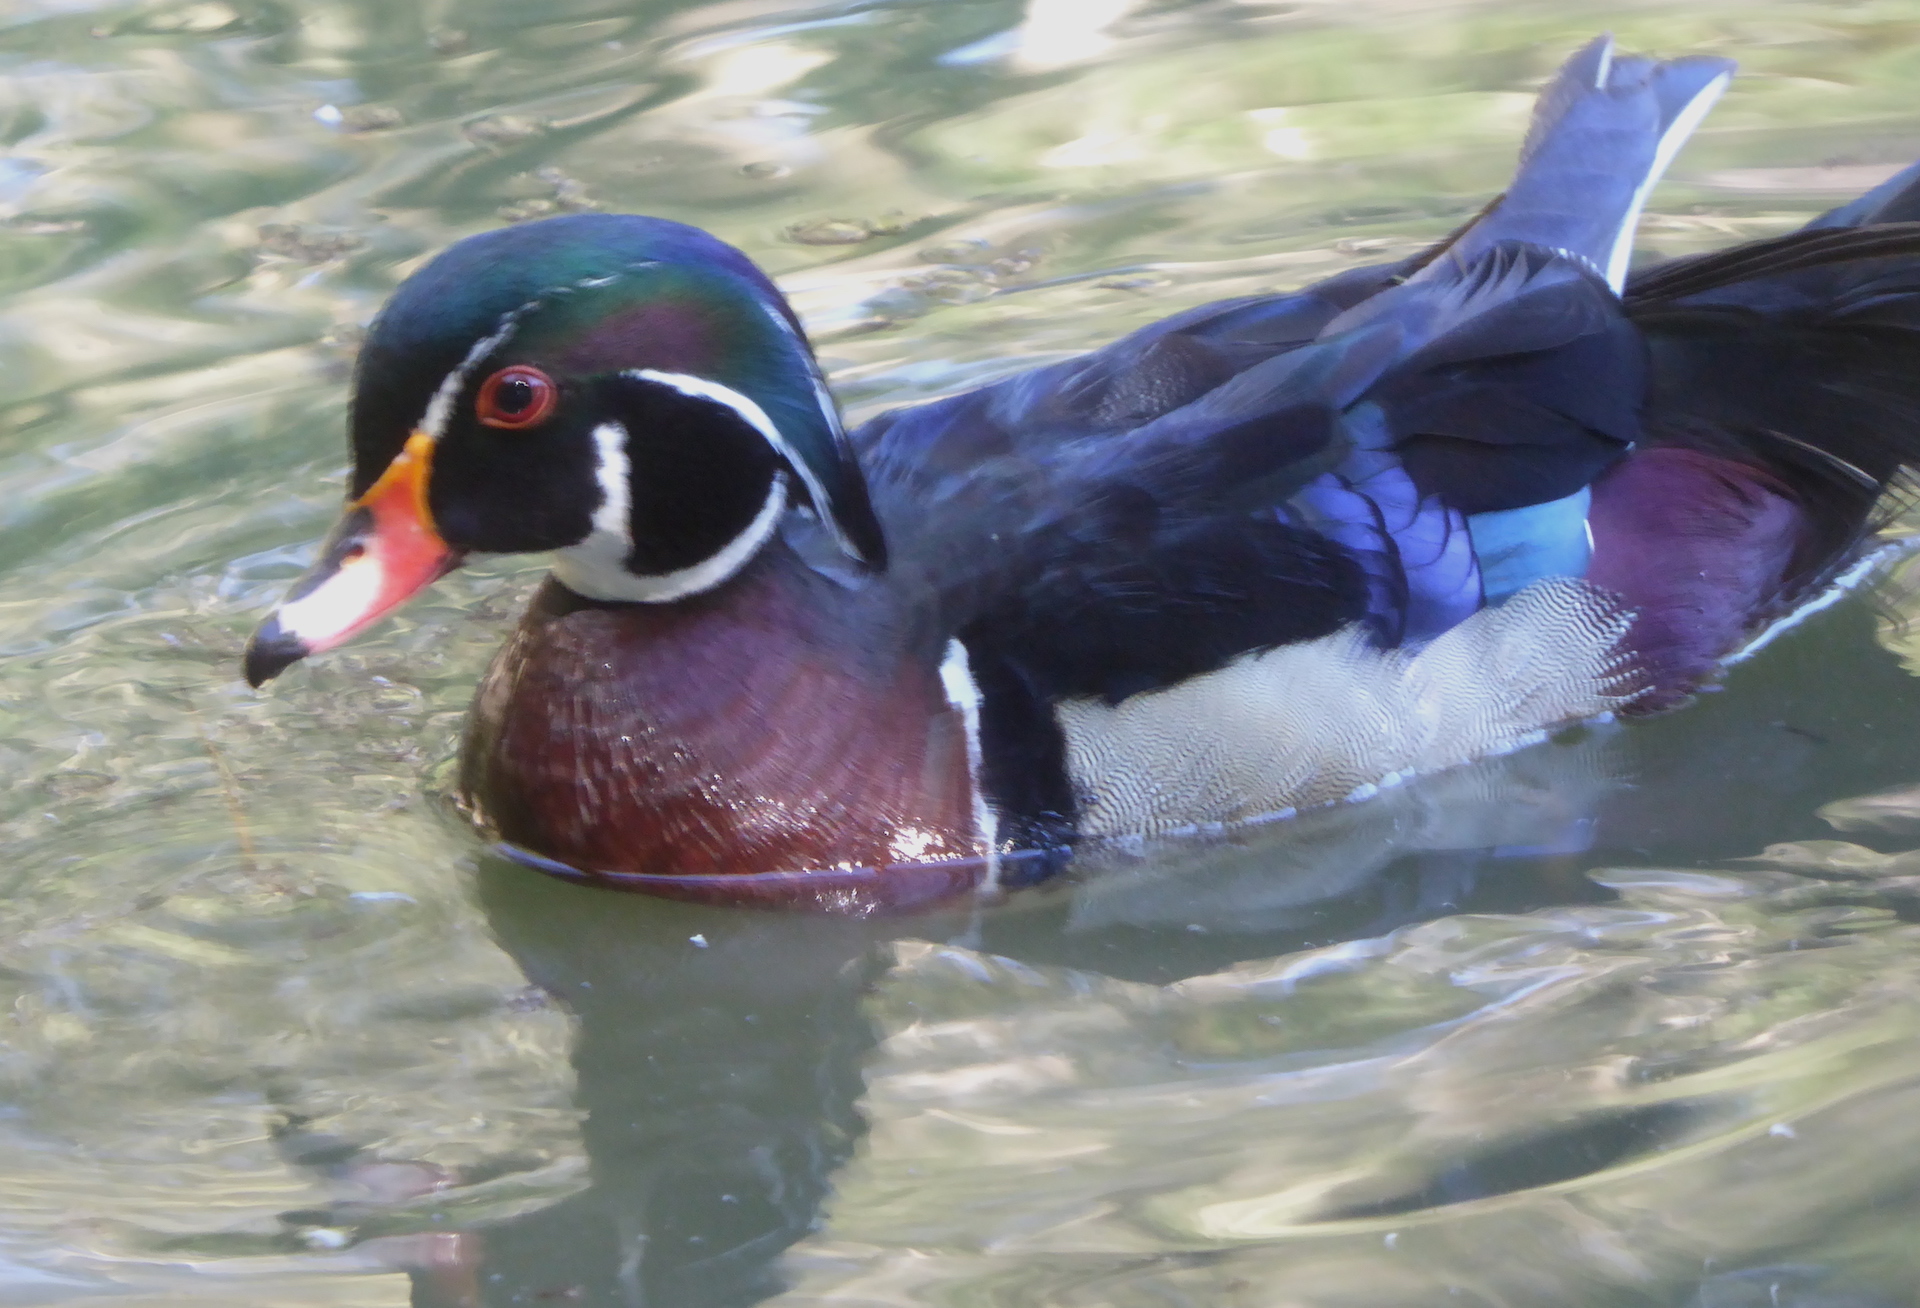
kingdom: Animalia
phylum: Chordata
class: Aves
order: Anseriformes
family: Anatidae
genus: Aix
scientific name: Aix sponsa
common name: Wood duck
